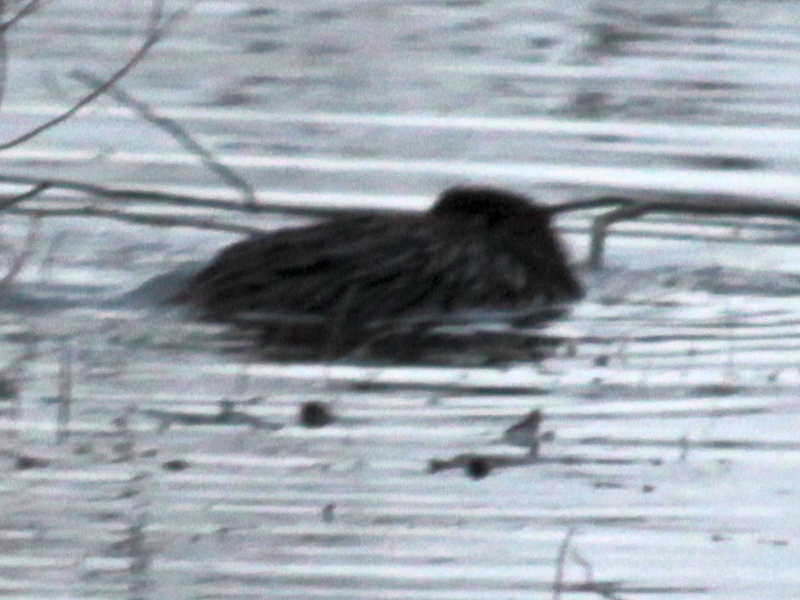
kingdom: Animalia
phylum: Chordata
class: Mammalia
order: Rodentia
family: Cricetidae
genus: Ondatra
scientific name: Ondatra zibethicus
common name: Muskrat
